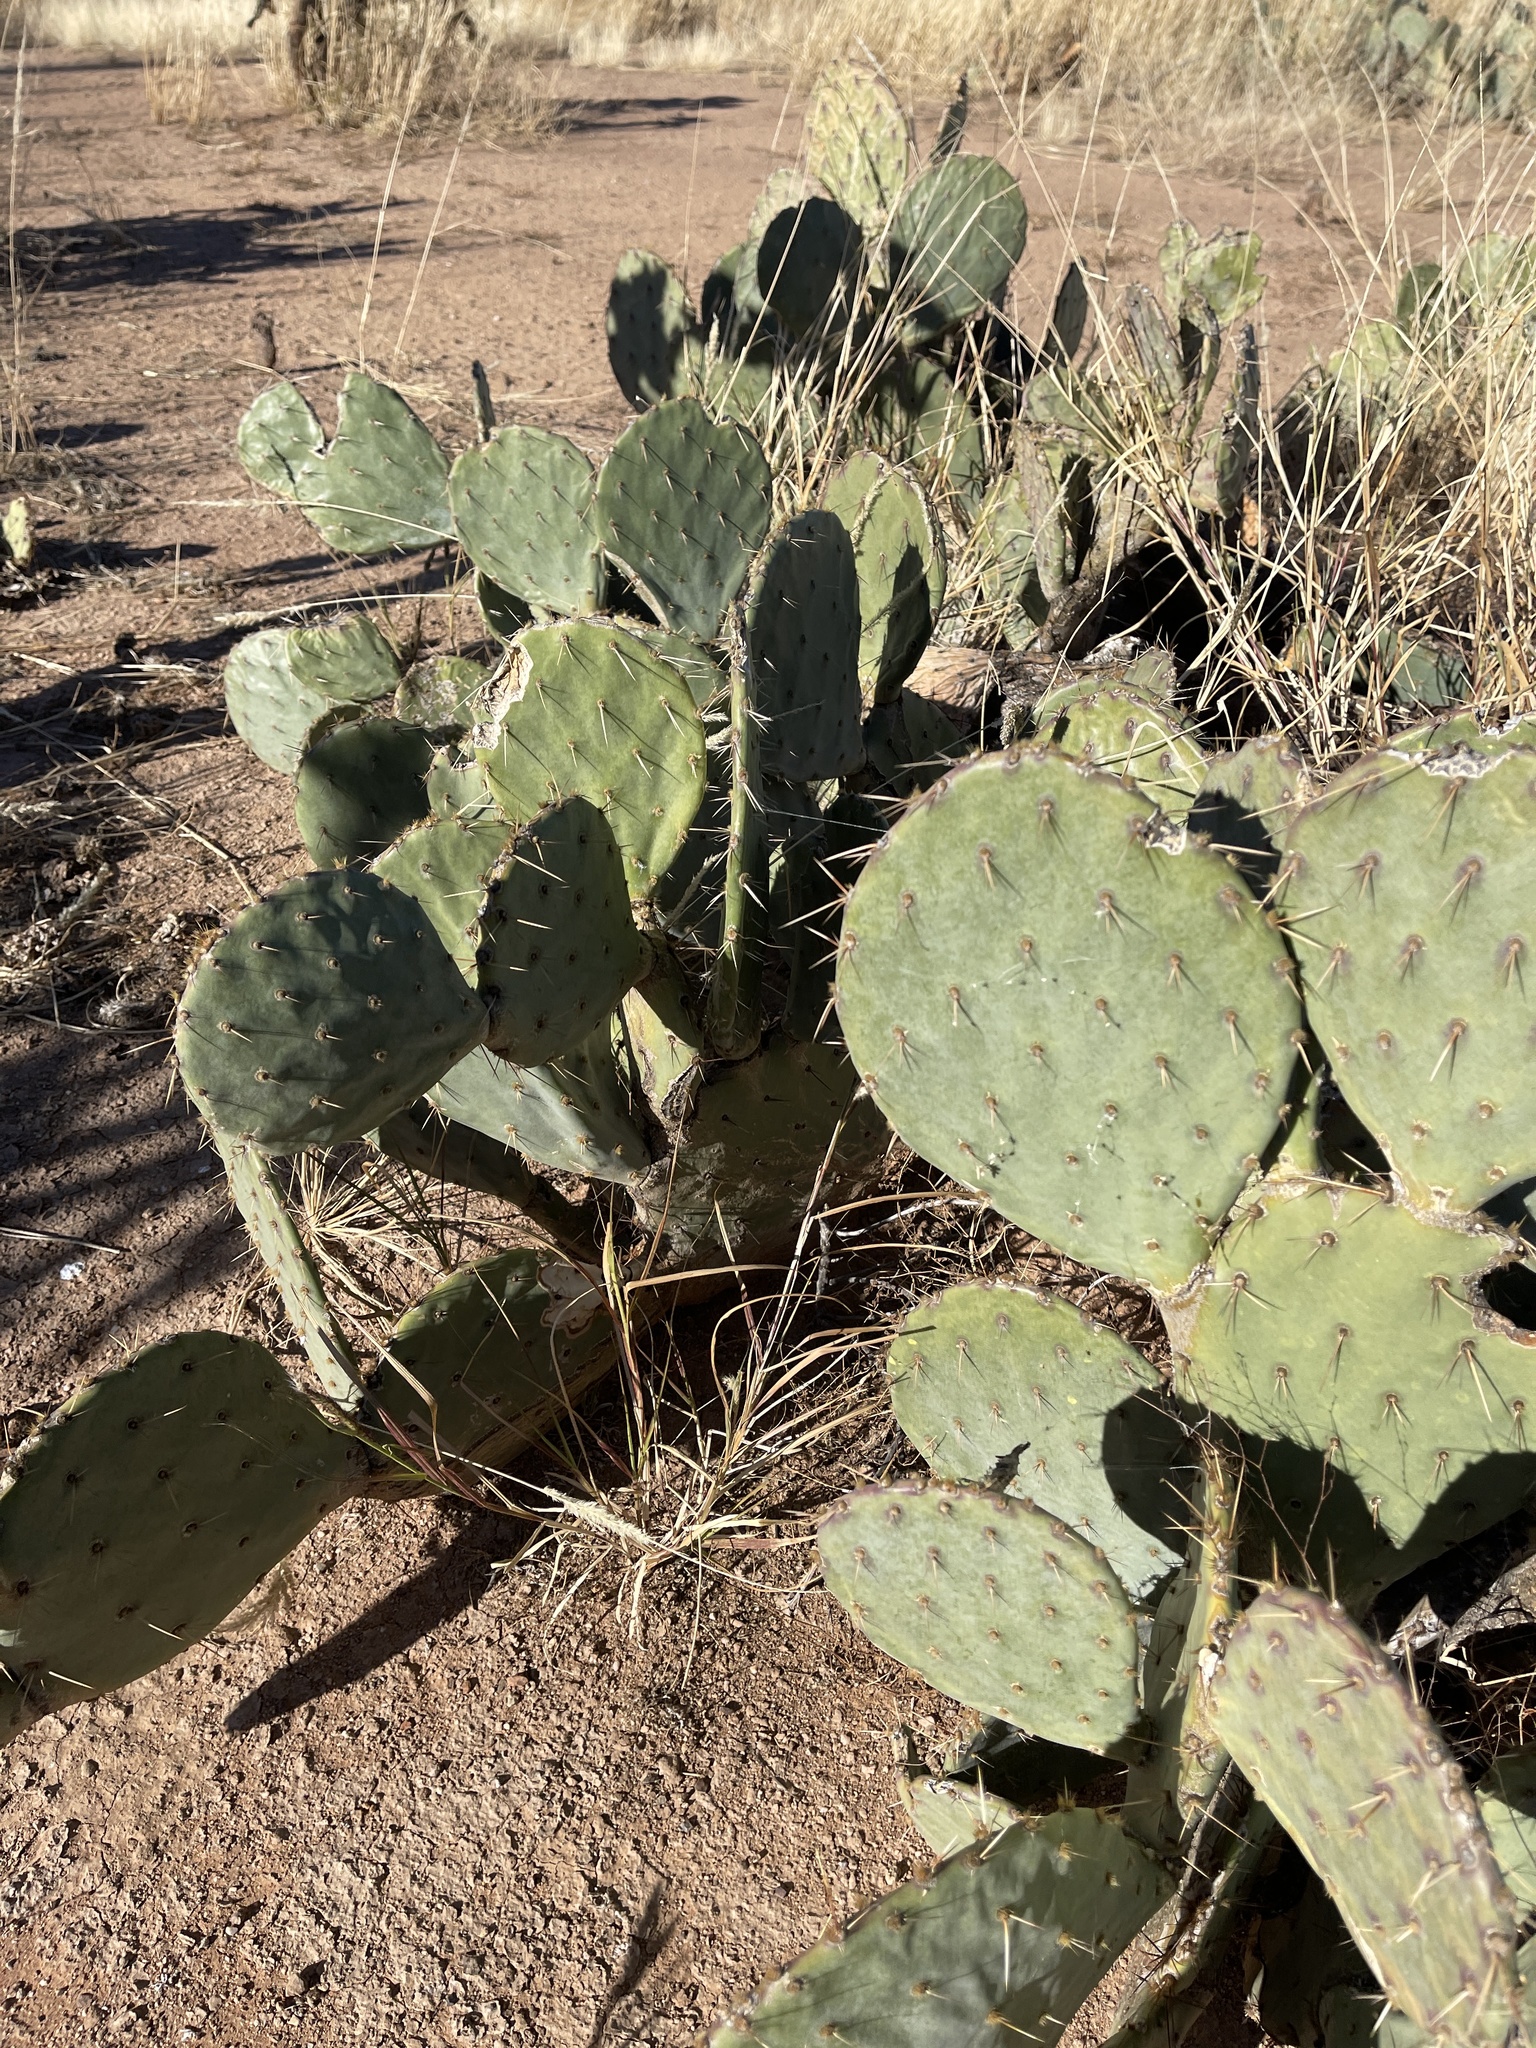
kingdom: Plantae
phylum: Tracheophyta
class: Magnoliopsida
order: Caryophyllales
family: Cactaceae
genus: Opuntia
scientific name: Opuntia engelmannii
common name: Cactus-apple
